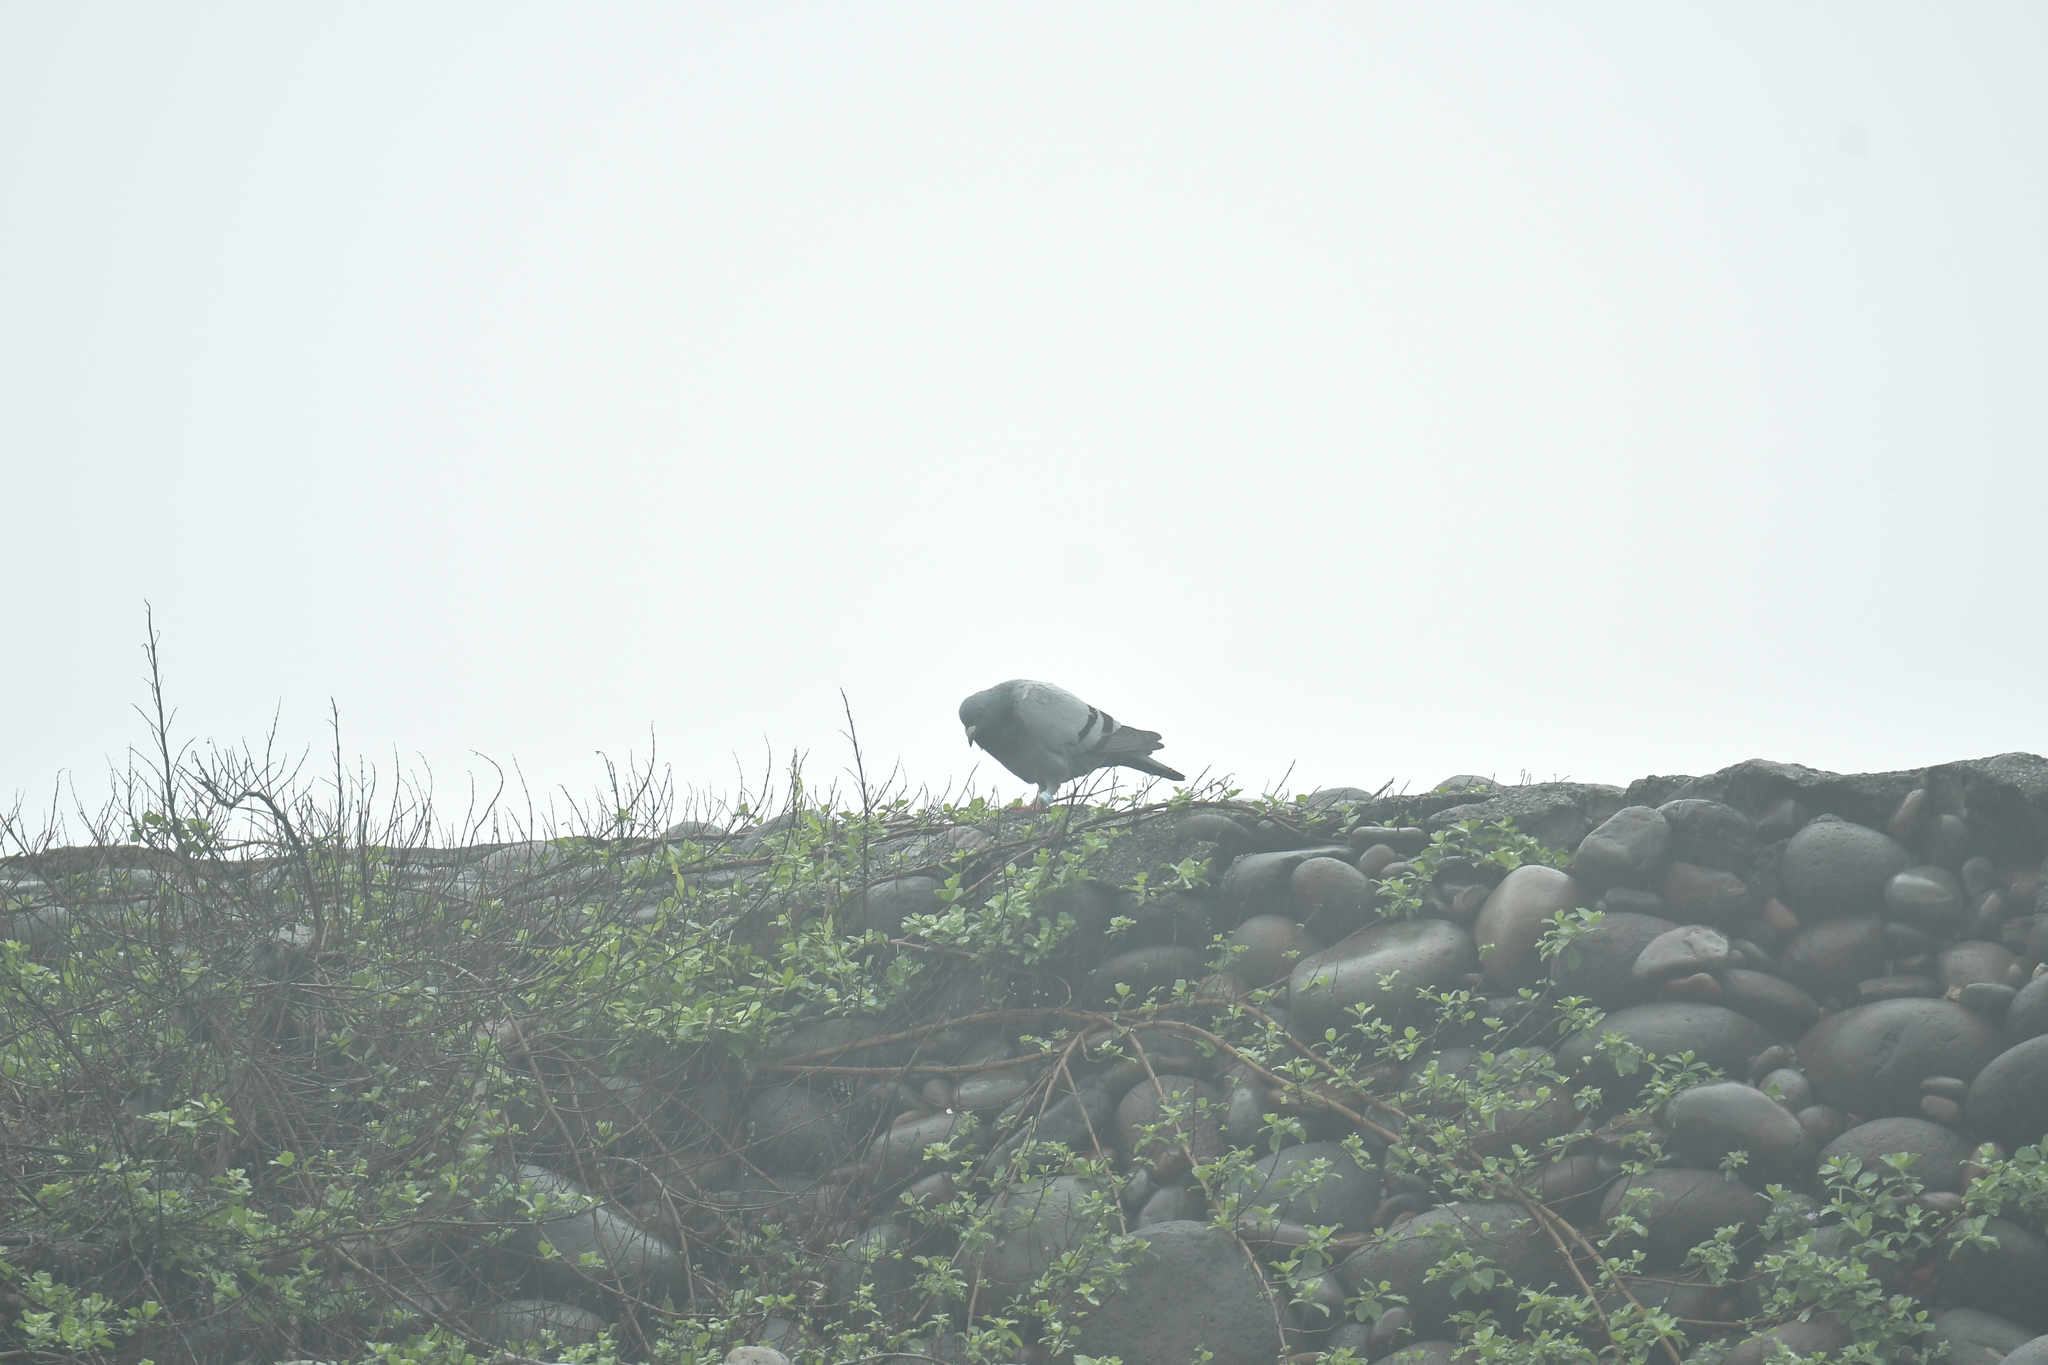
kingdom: Animalia
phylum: Chordata
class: Aves
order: Columbiformes
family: Columbidae
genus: Columba
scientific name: Columba livia
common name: Rock pigeon
